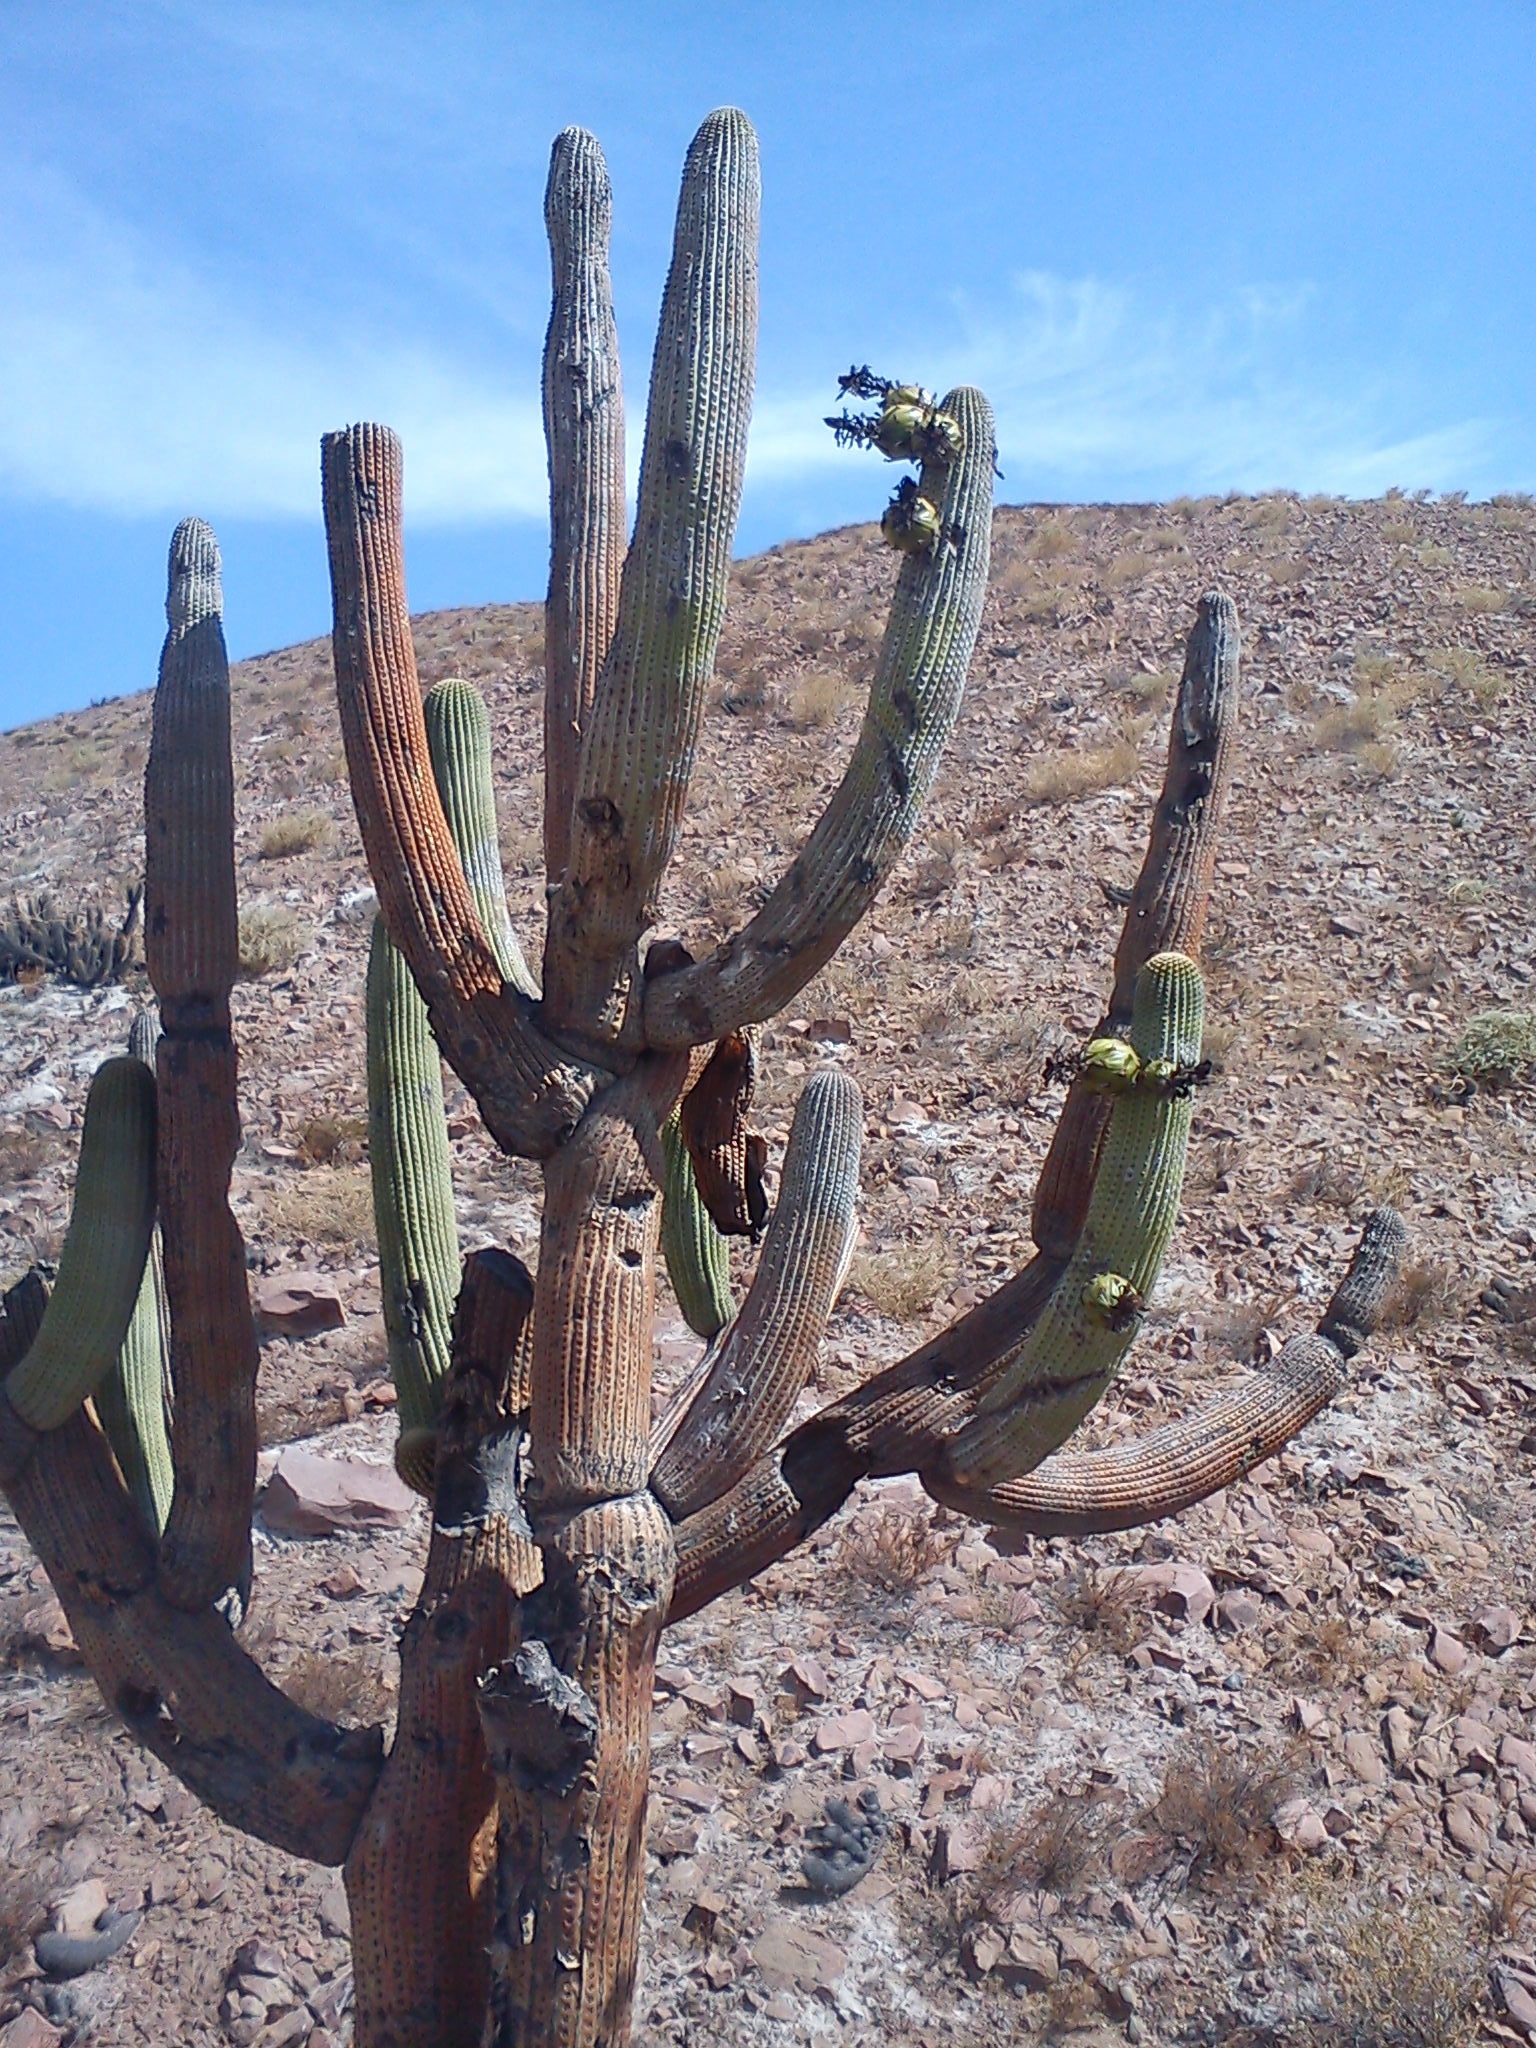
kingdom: Plantae
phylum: Tracheophyta
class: Magnoliopsida
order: Caryophyllales
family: Cactaceae
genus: Browningia
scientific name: Browningia candelaris
